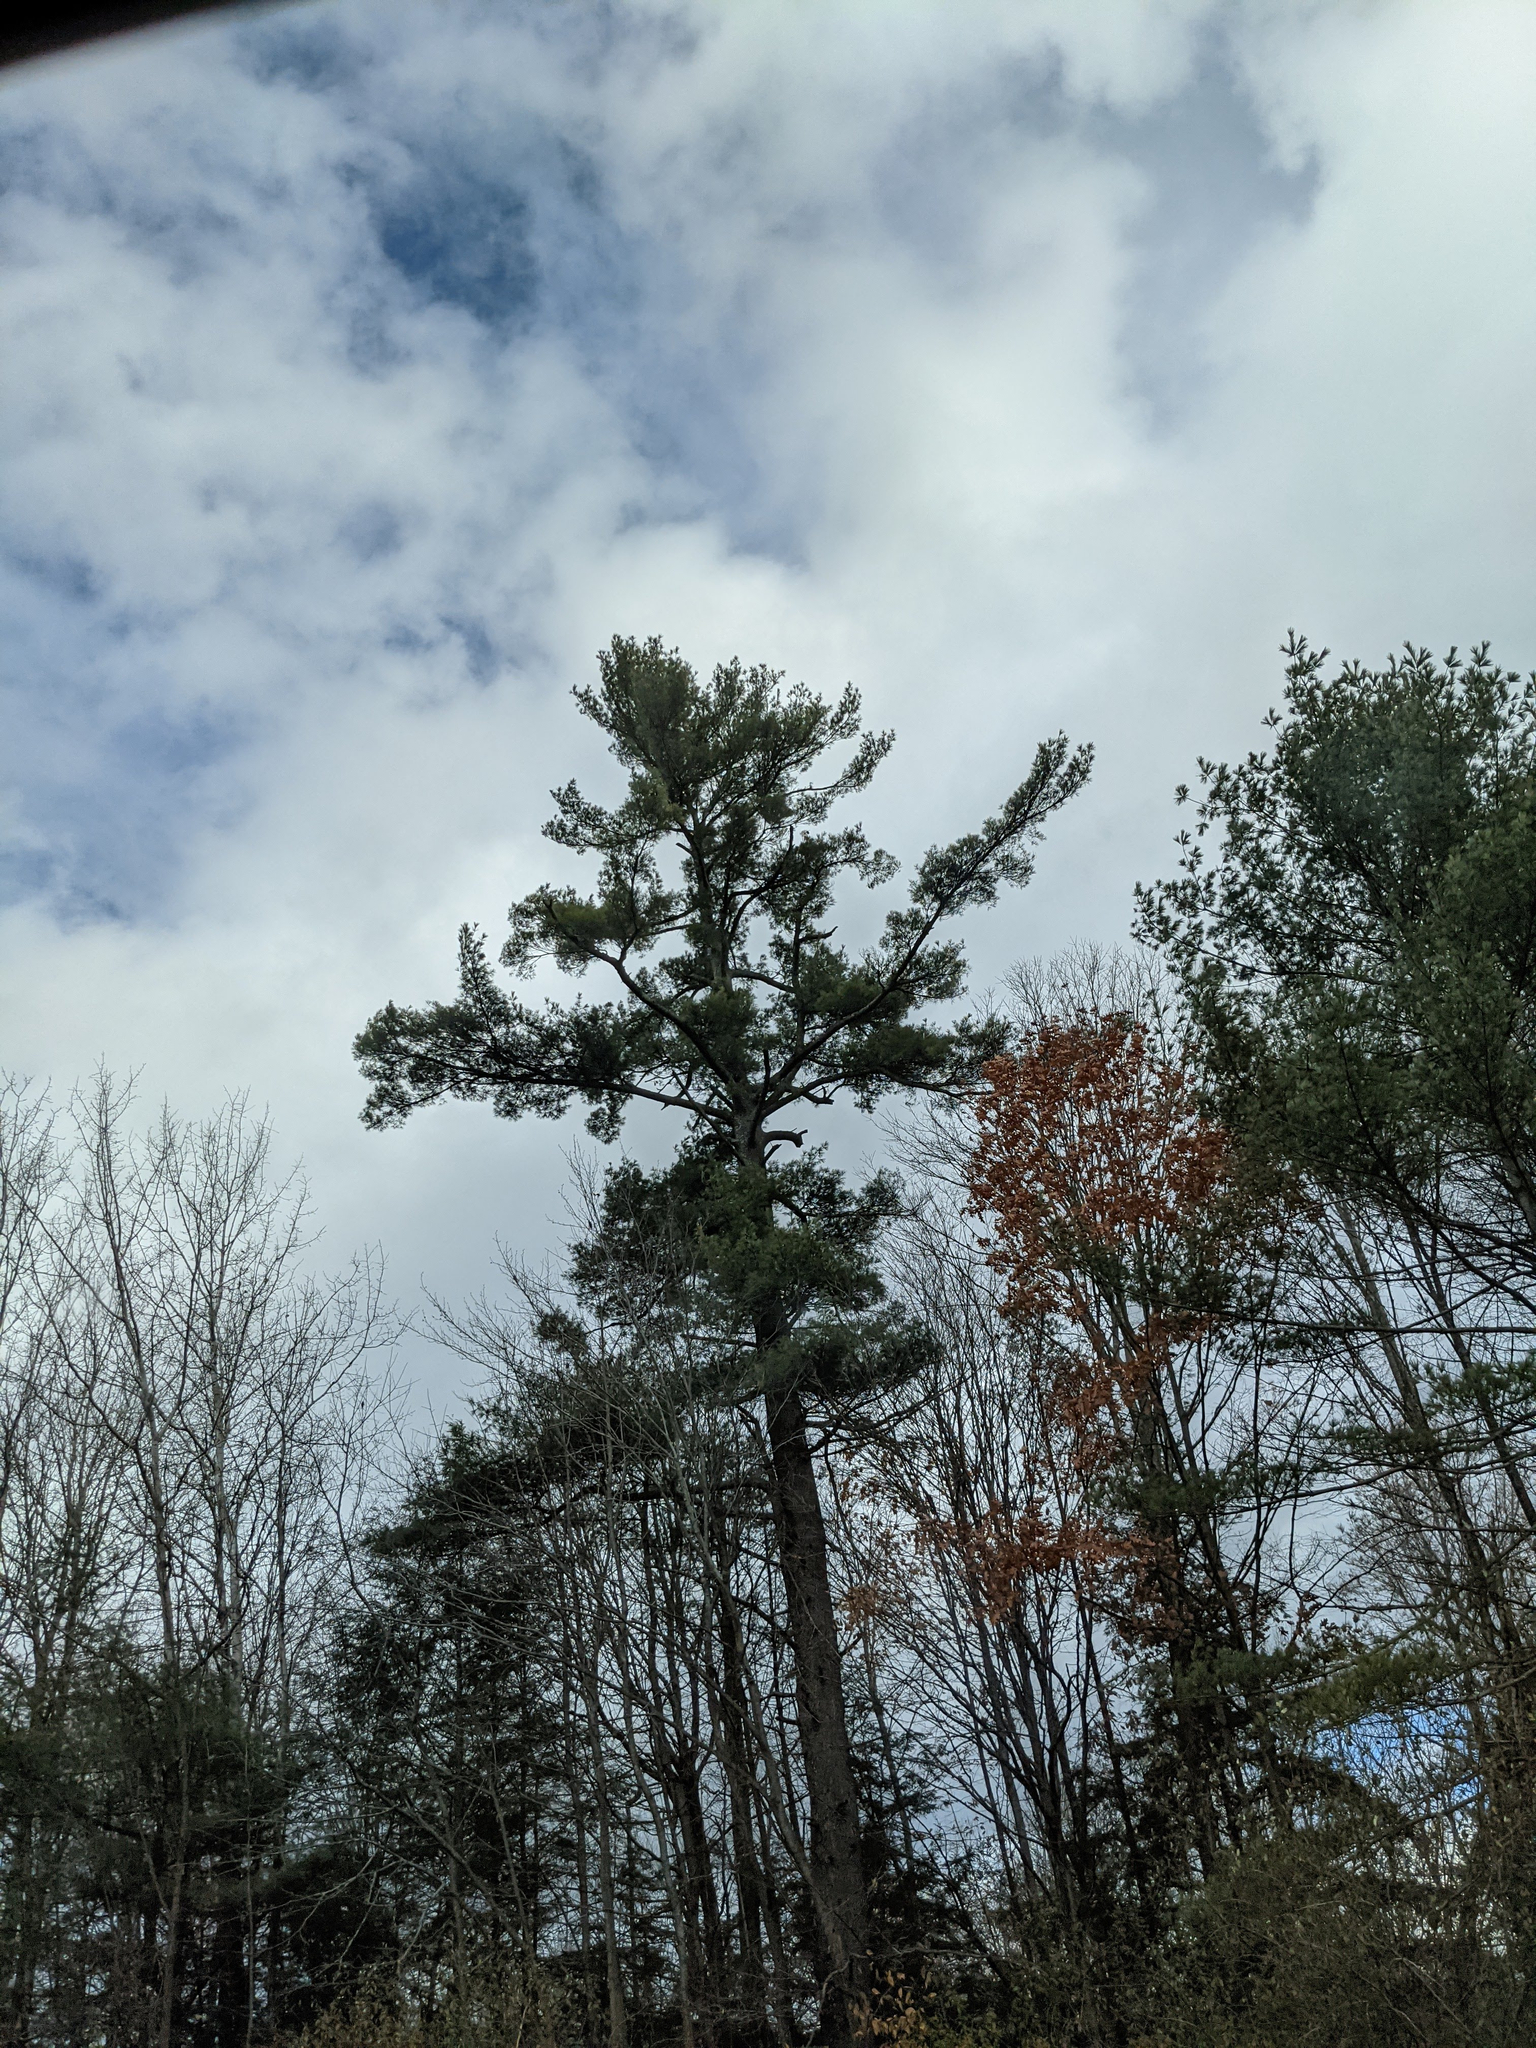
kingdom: Plantae
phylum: Tracheophyta
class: Pinopsida
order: Pinales
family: Pinaceae
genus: Pinus
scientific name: Pinus strobus
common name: Weymouth pine
